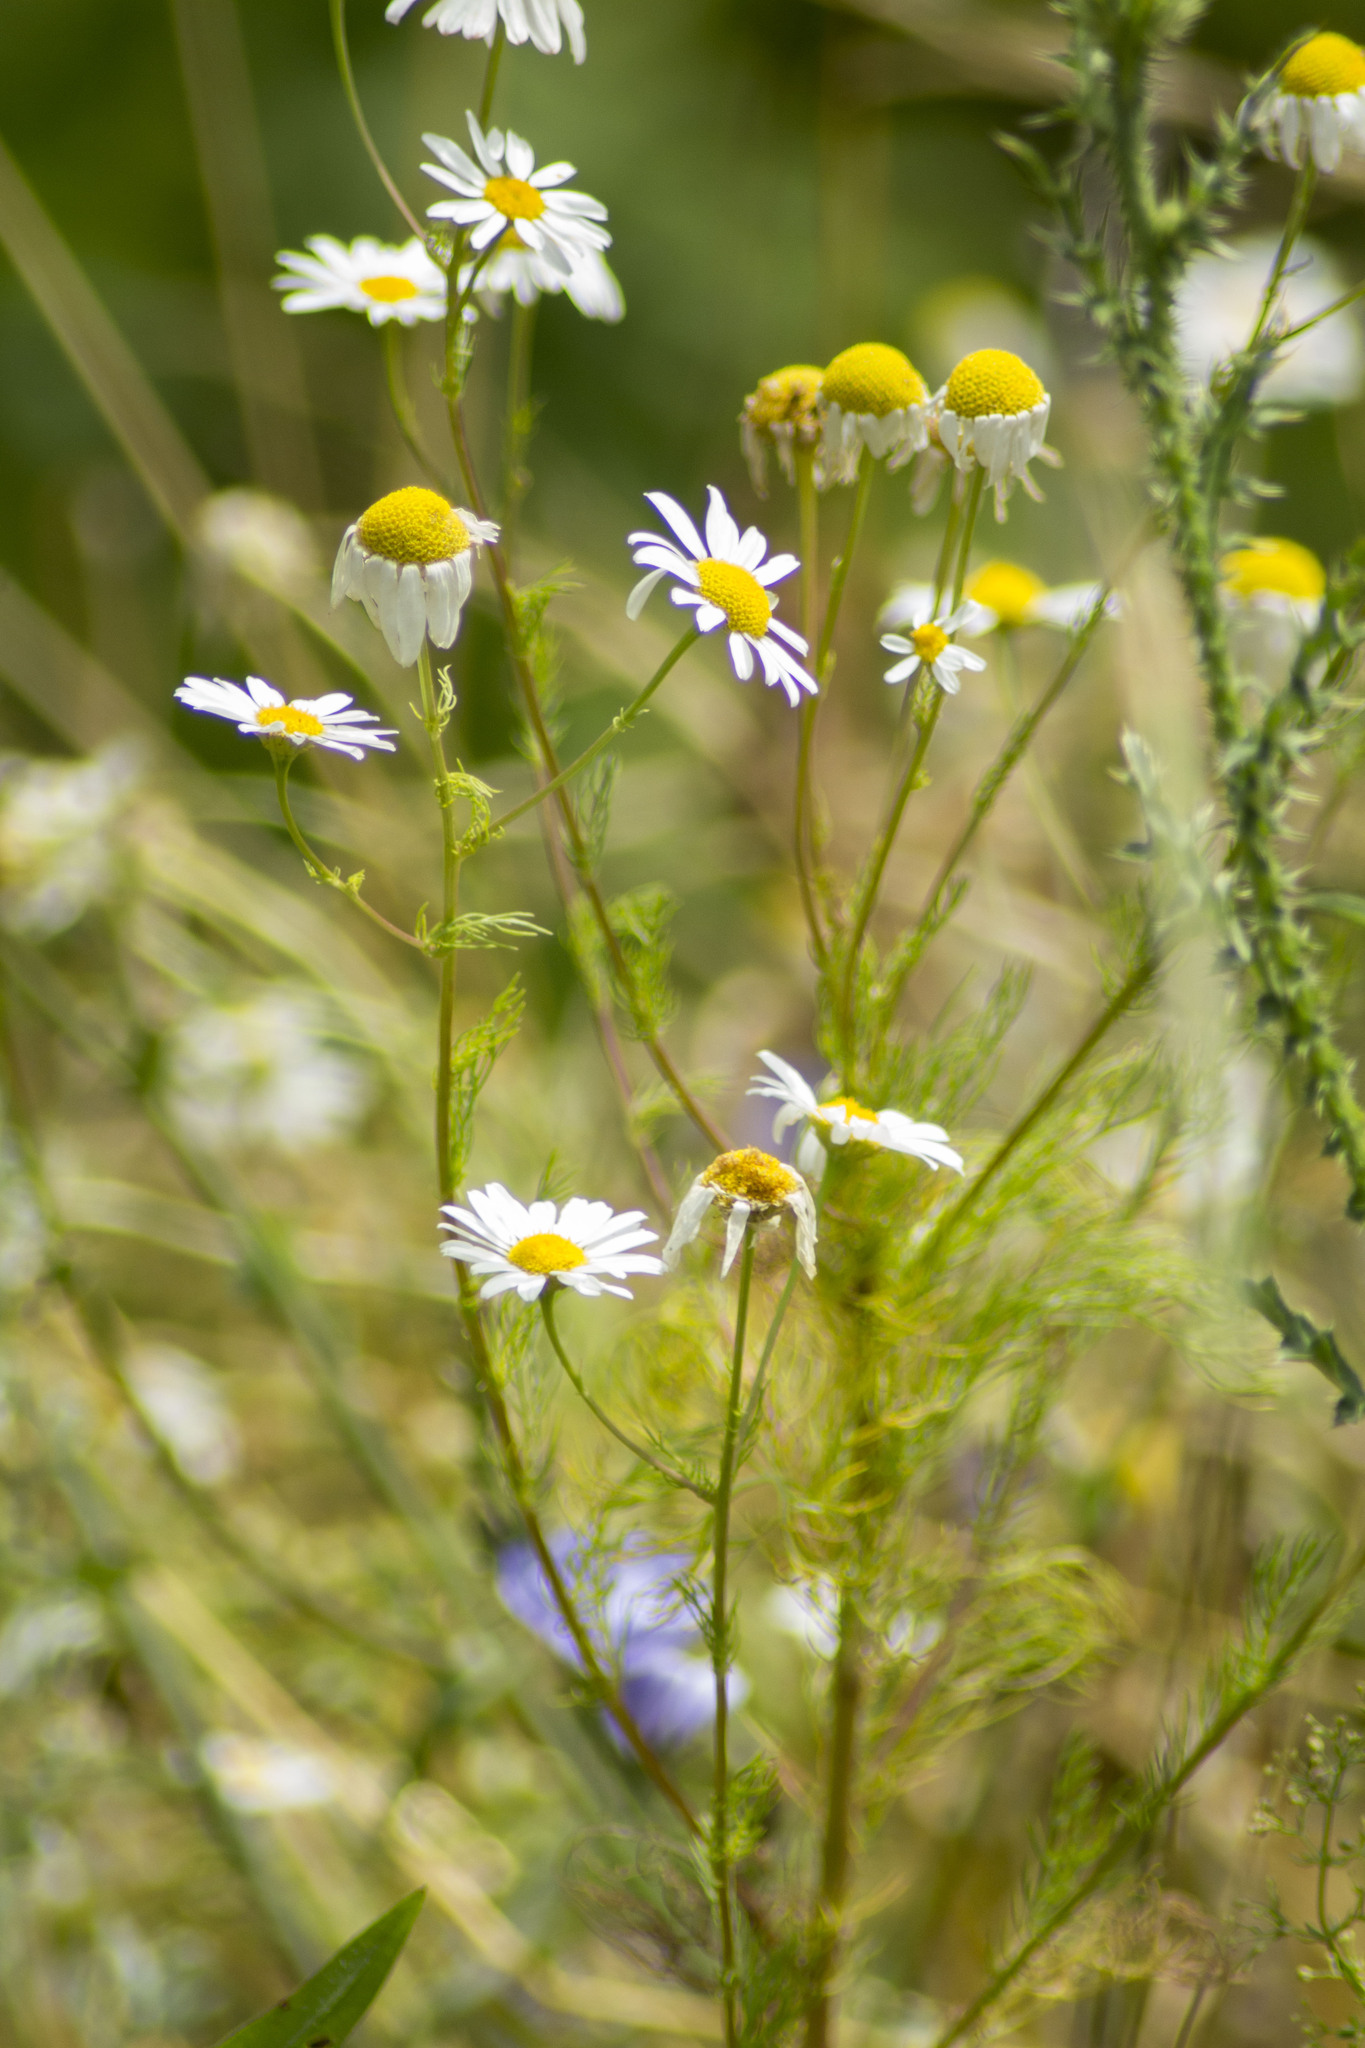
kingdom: Plantae
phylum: Tracheophyta
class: Magnoliopsida
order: Asterales
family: Asteraceae
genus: Tripleurospermum
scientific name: Tripleurospermum inodorum
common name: Scentless mayweed
